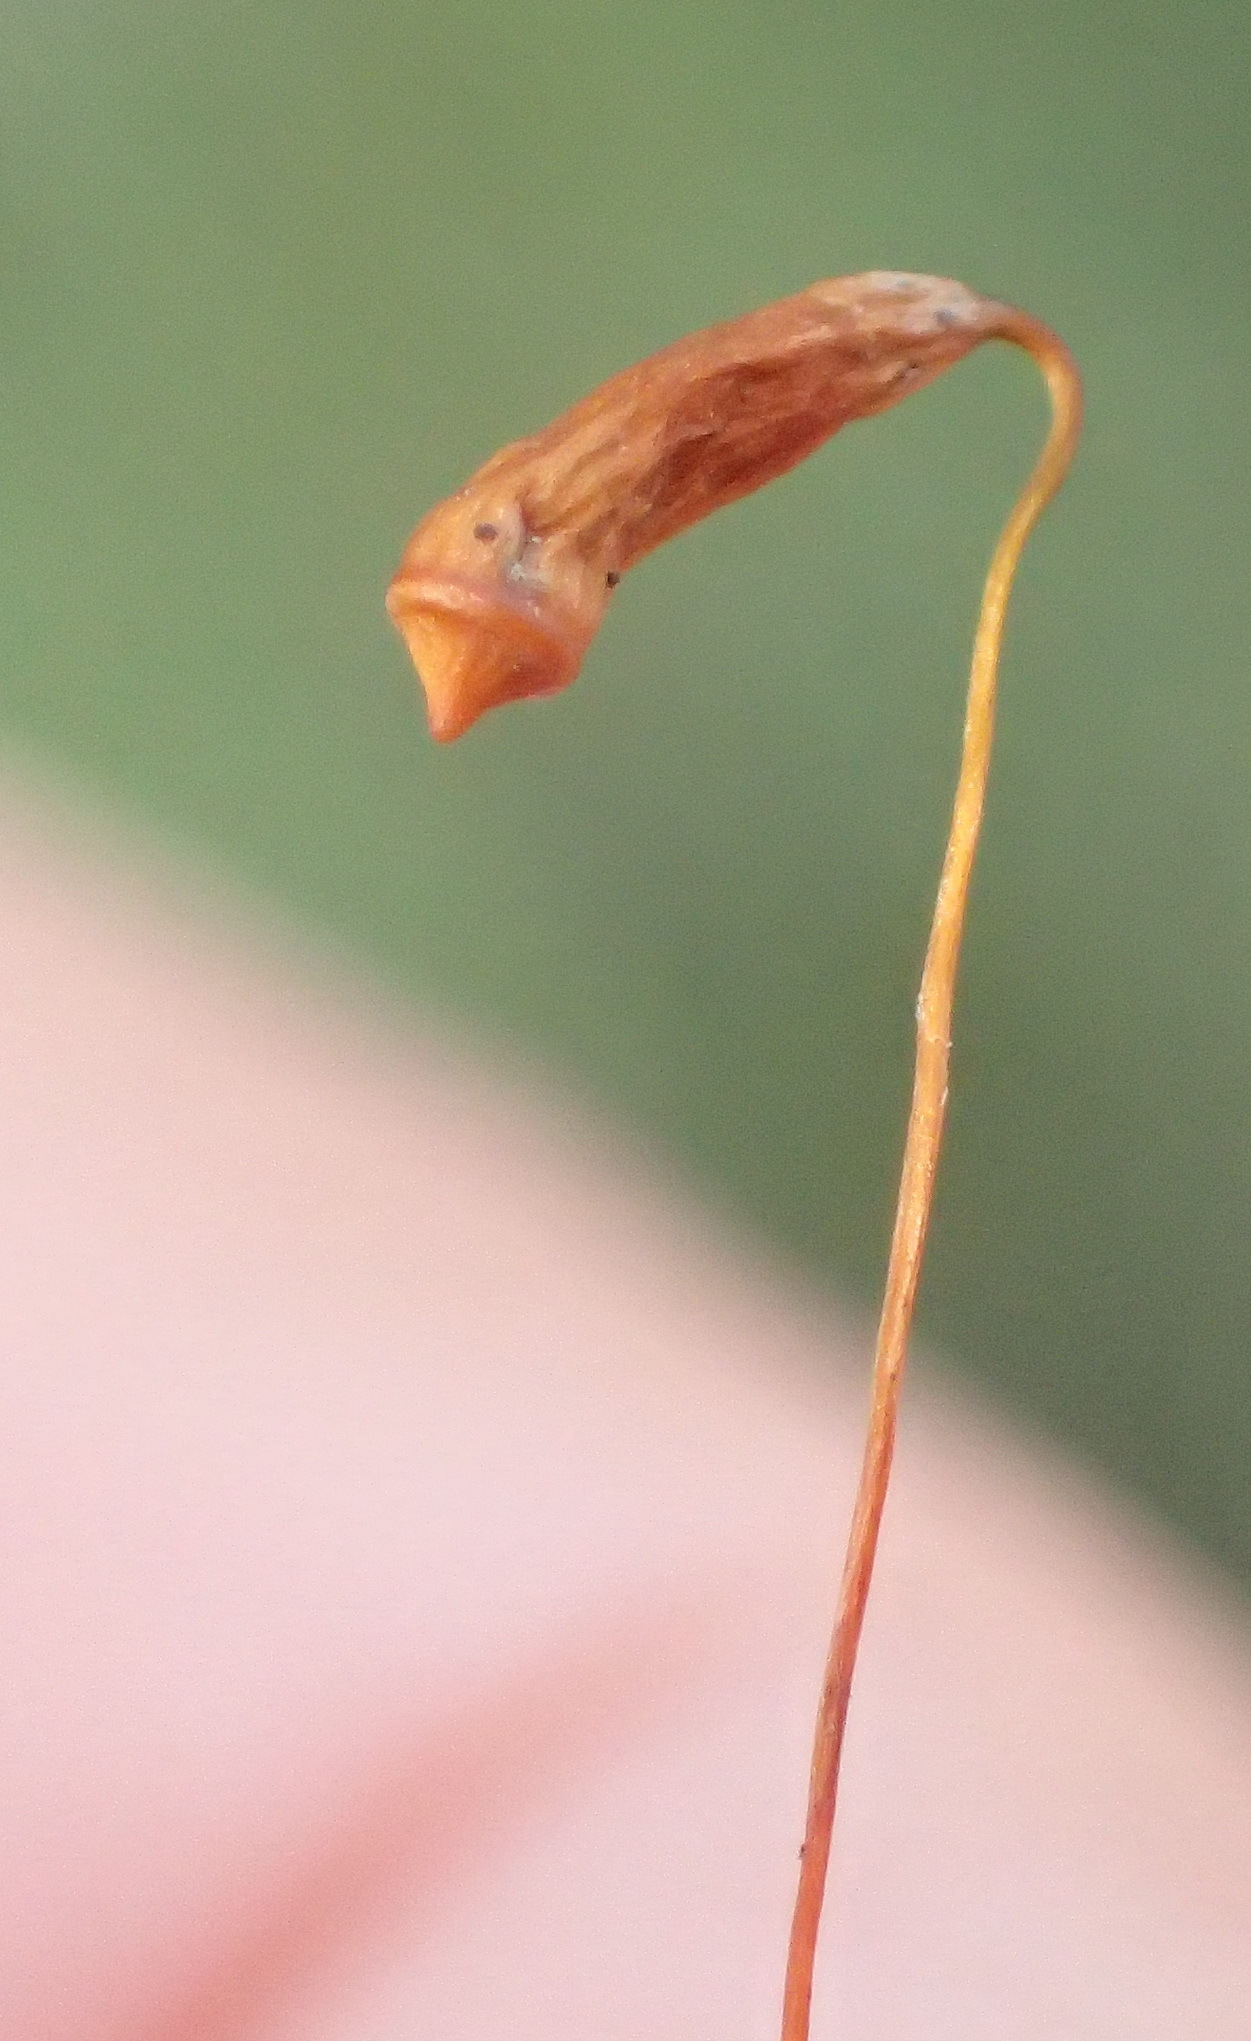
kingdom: Plantae
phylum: Bryophyta
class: Bryopsida
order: Bryales
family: Bryaceae
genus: Rosulabryum
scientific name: Rosulabryum donianum
